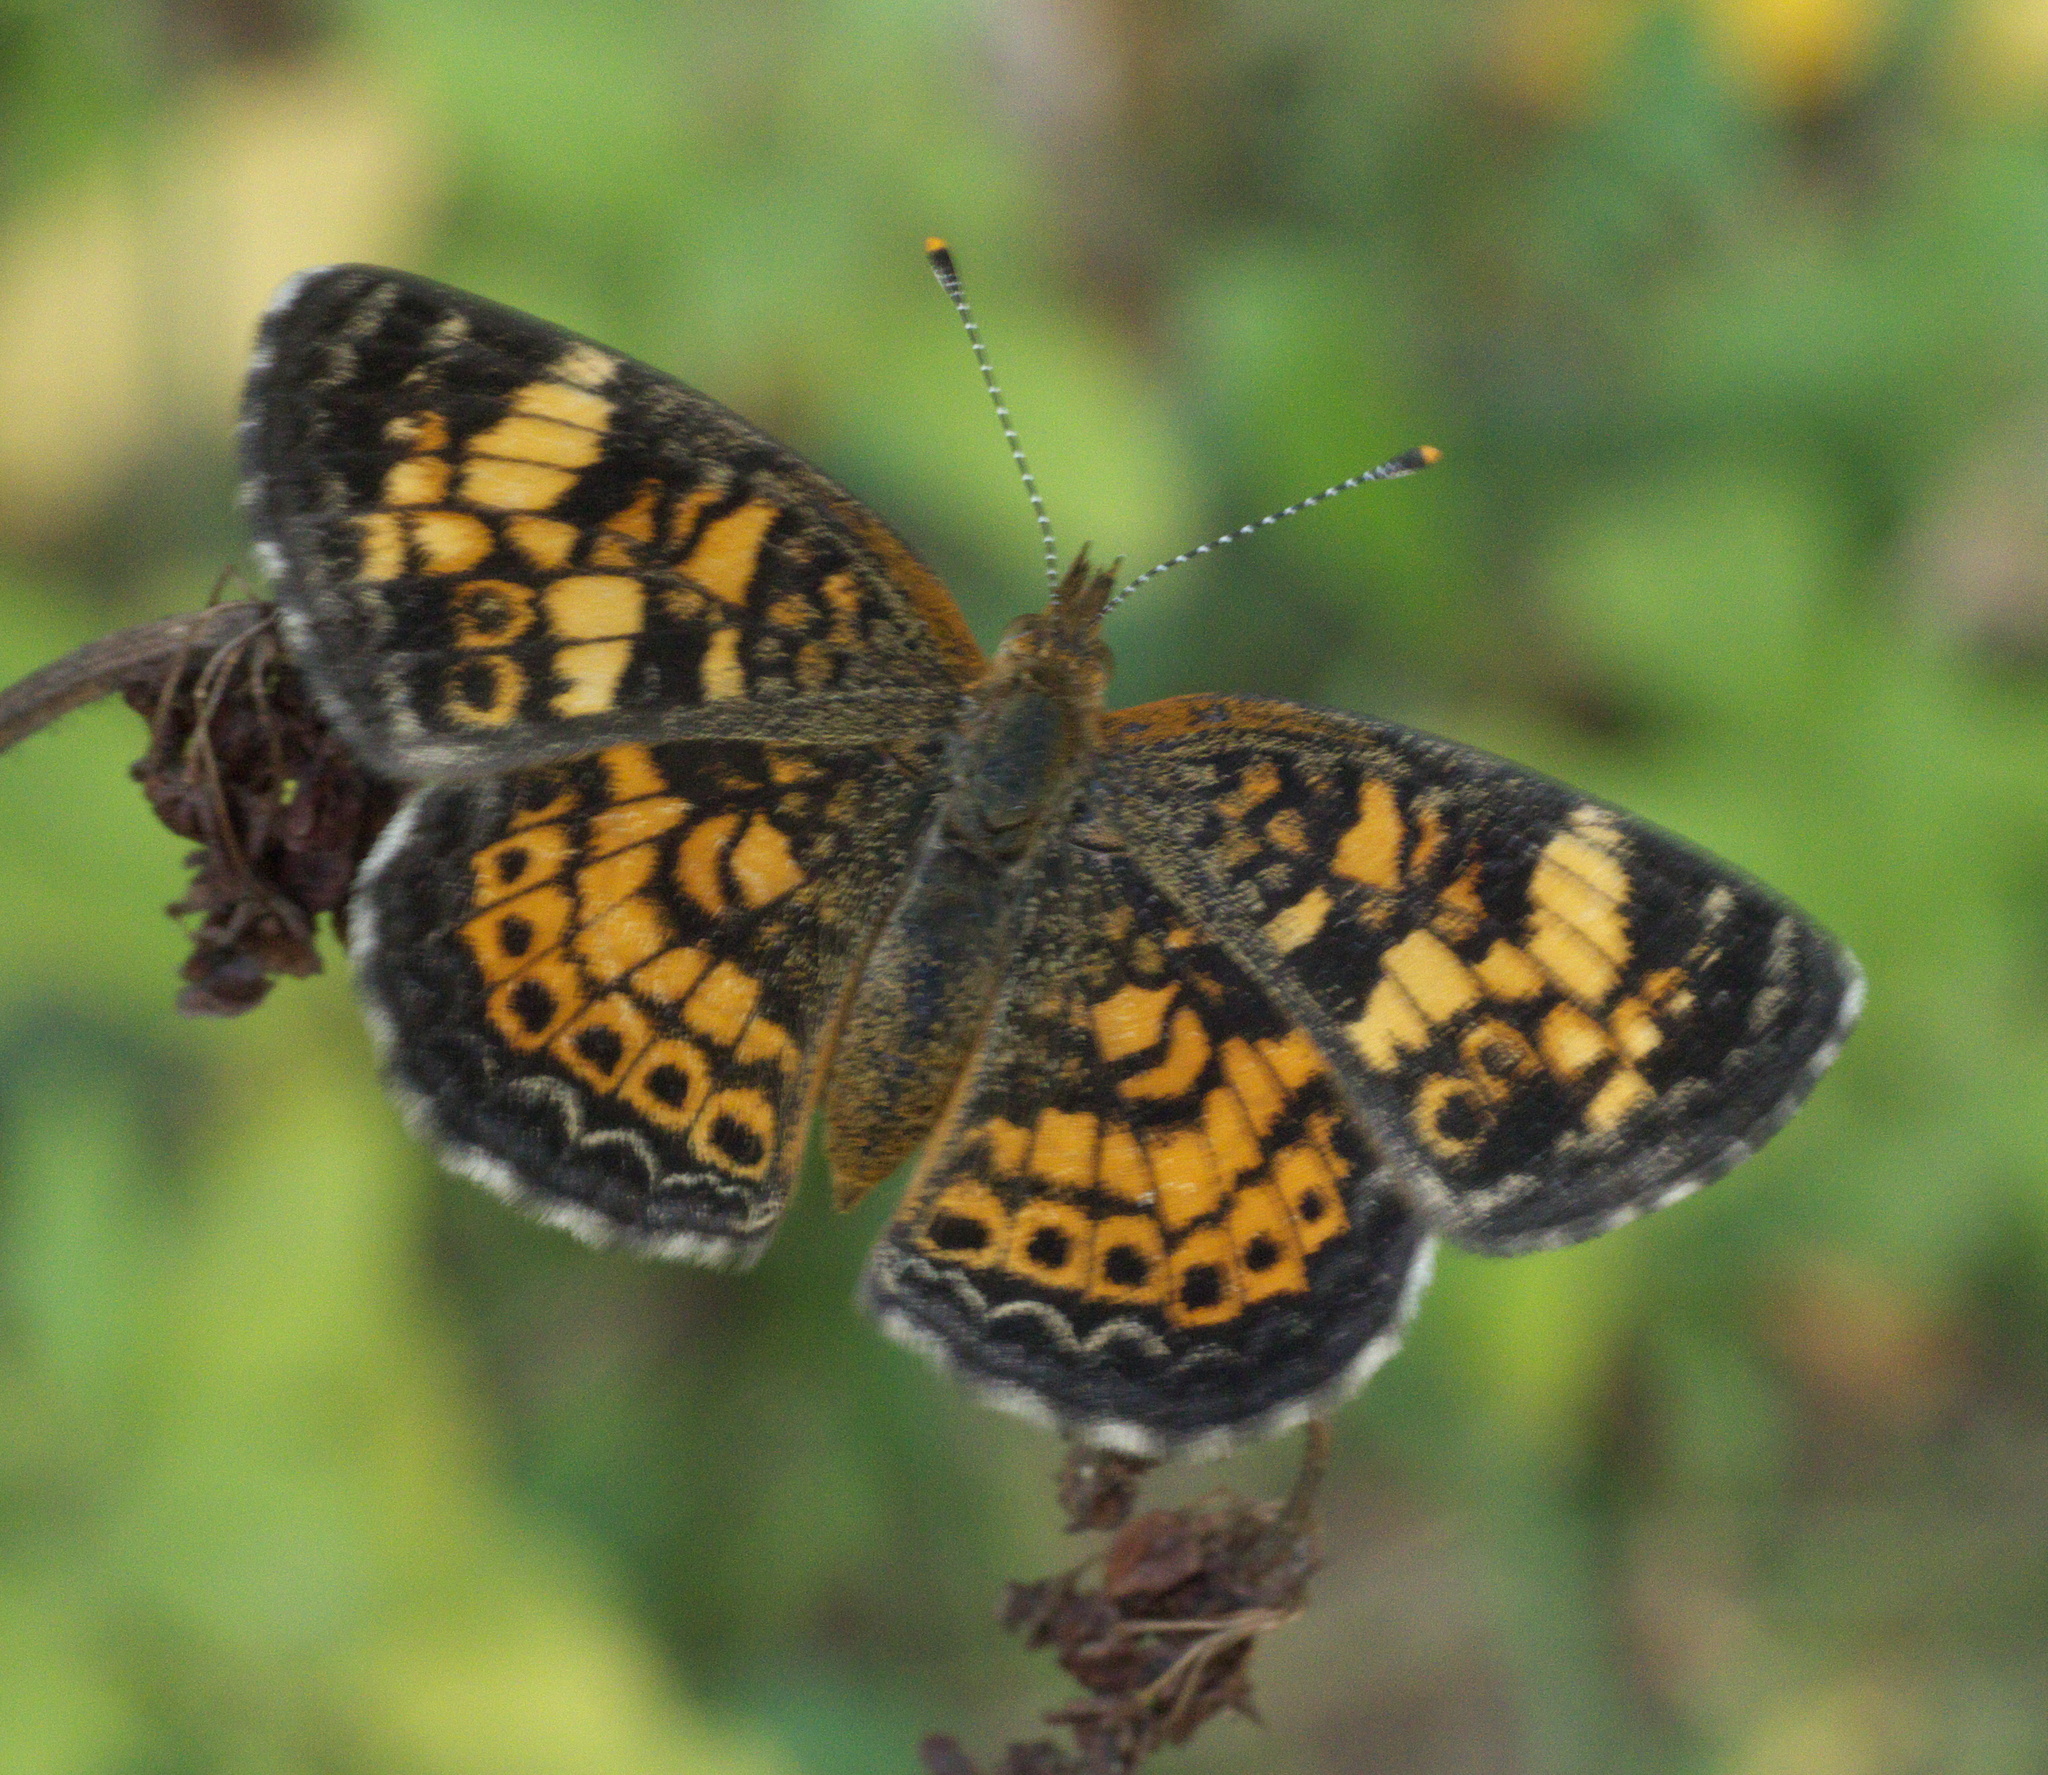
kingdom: Animalia
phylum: Arthropoda
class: Insecta
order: Lepidoptera
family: Nymphalidae
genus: Phyciodes
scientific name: Phyciodes tharos
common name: Pearl crescent
